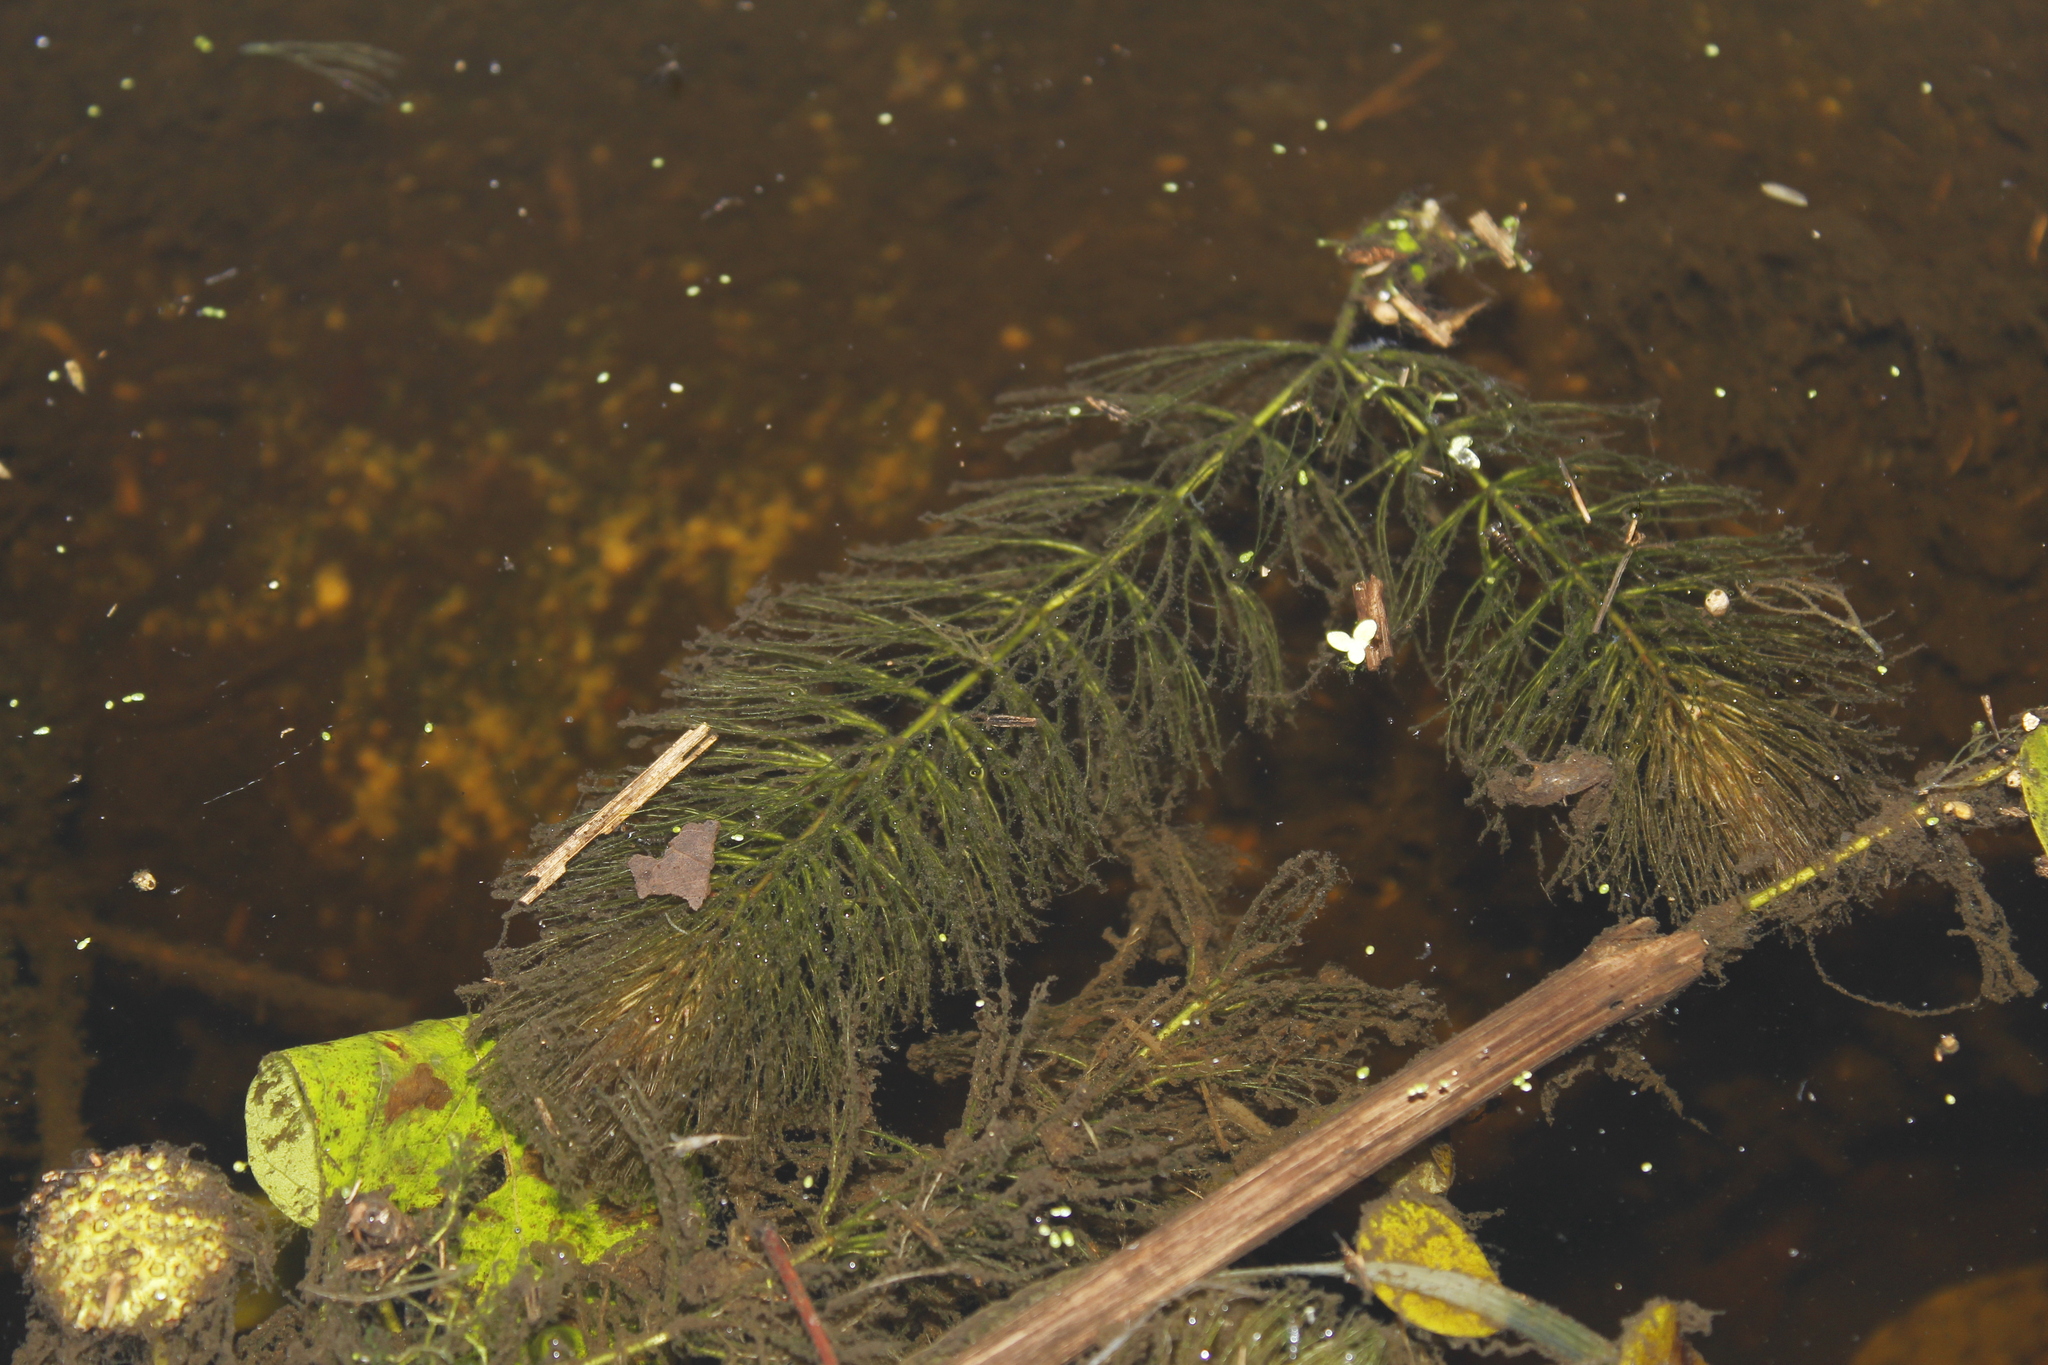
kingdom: Plantae
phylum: Tracheophyta
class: Magnoliopsida
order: Ceratophyllales
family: Ceratophyllaceae
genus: Ceratophyllum
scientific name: Ceratophyllum echinatum
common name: Prickly coontail
